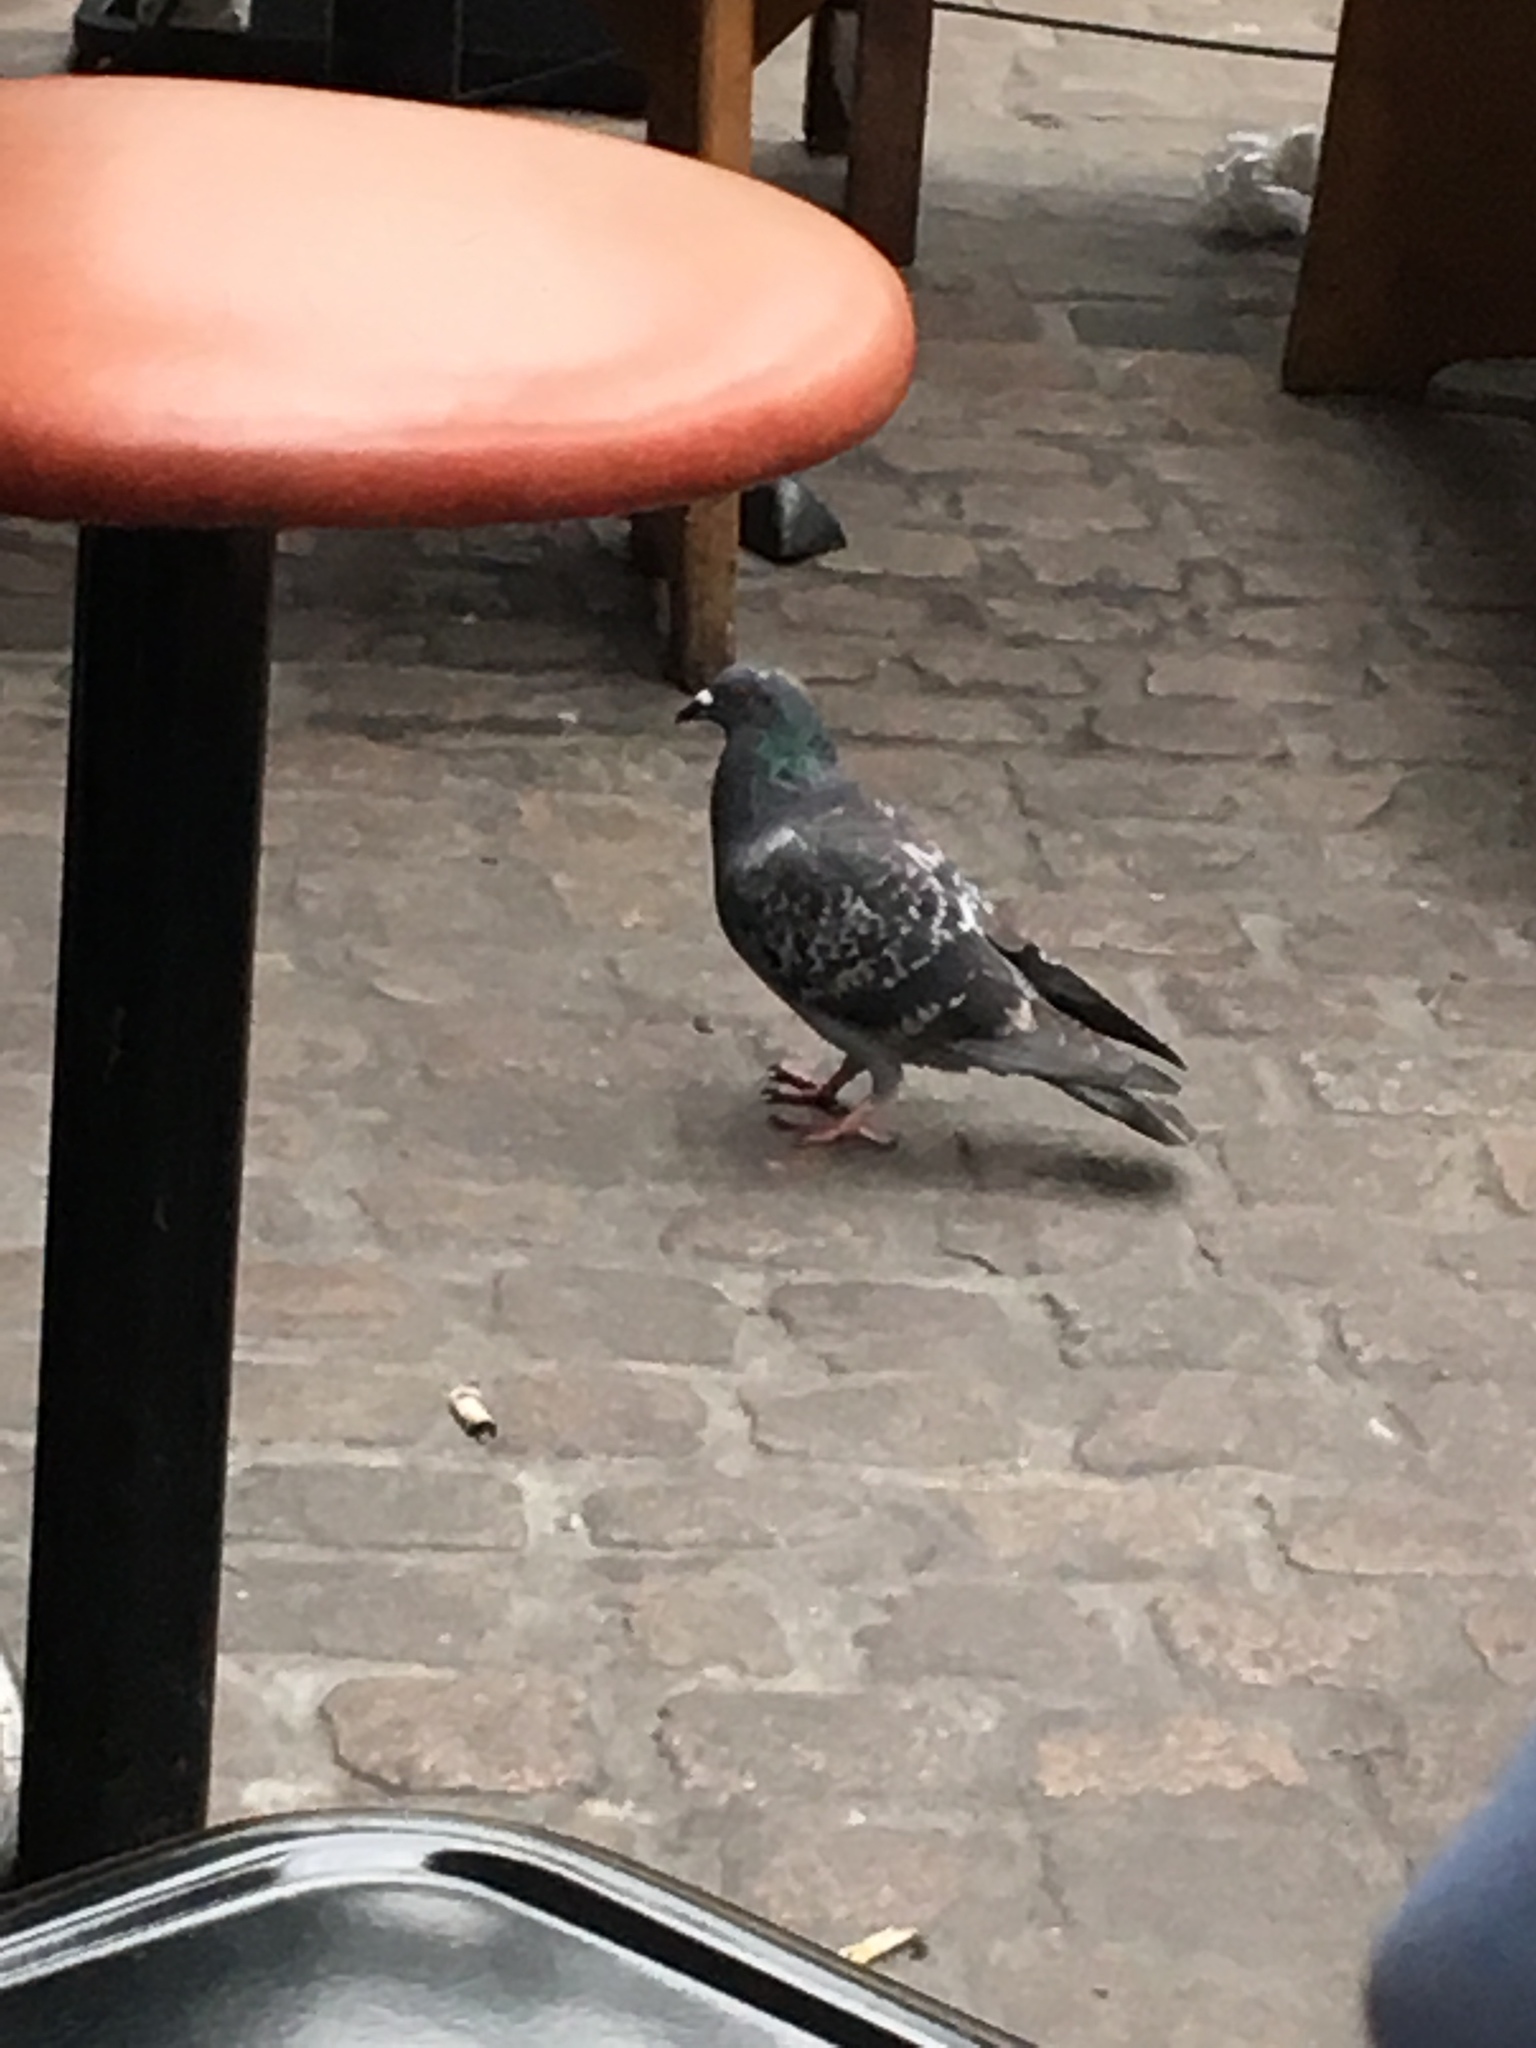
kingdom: Animalia
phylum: Chordata
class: Aves
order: Columbiformes
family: Columbidae
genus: Columba
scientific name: Columba livia
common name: Rock pigeon
